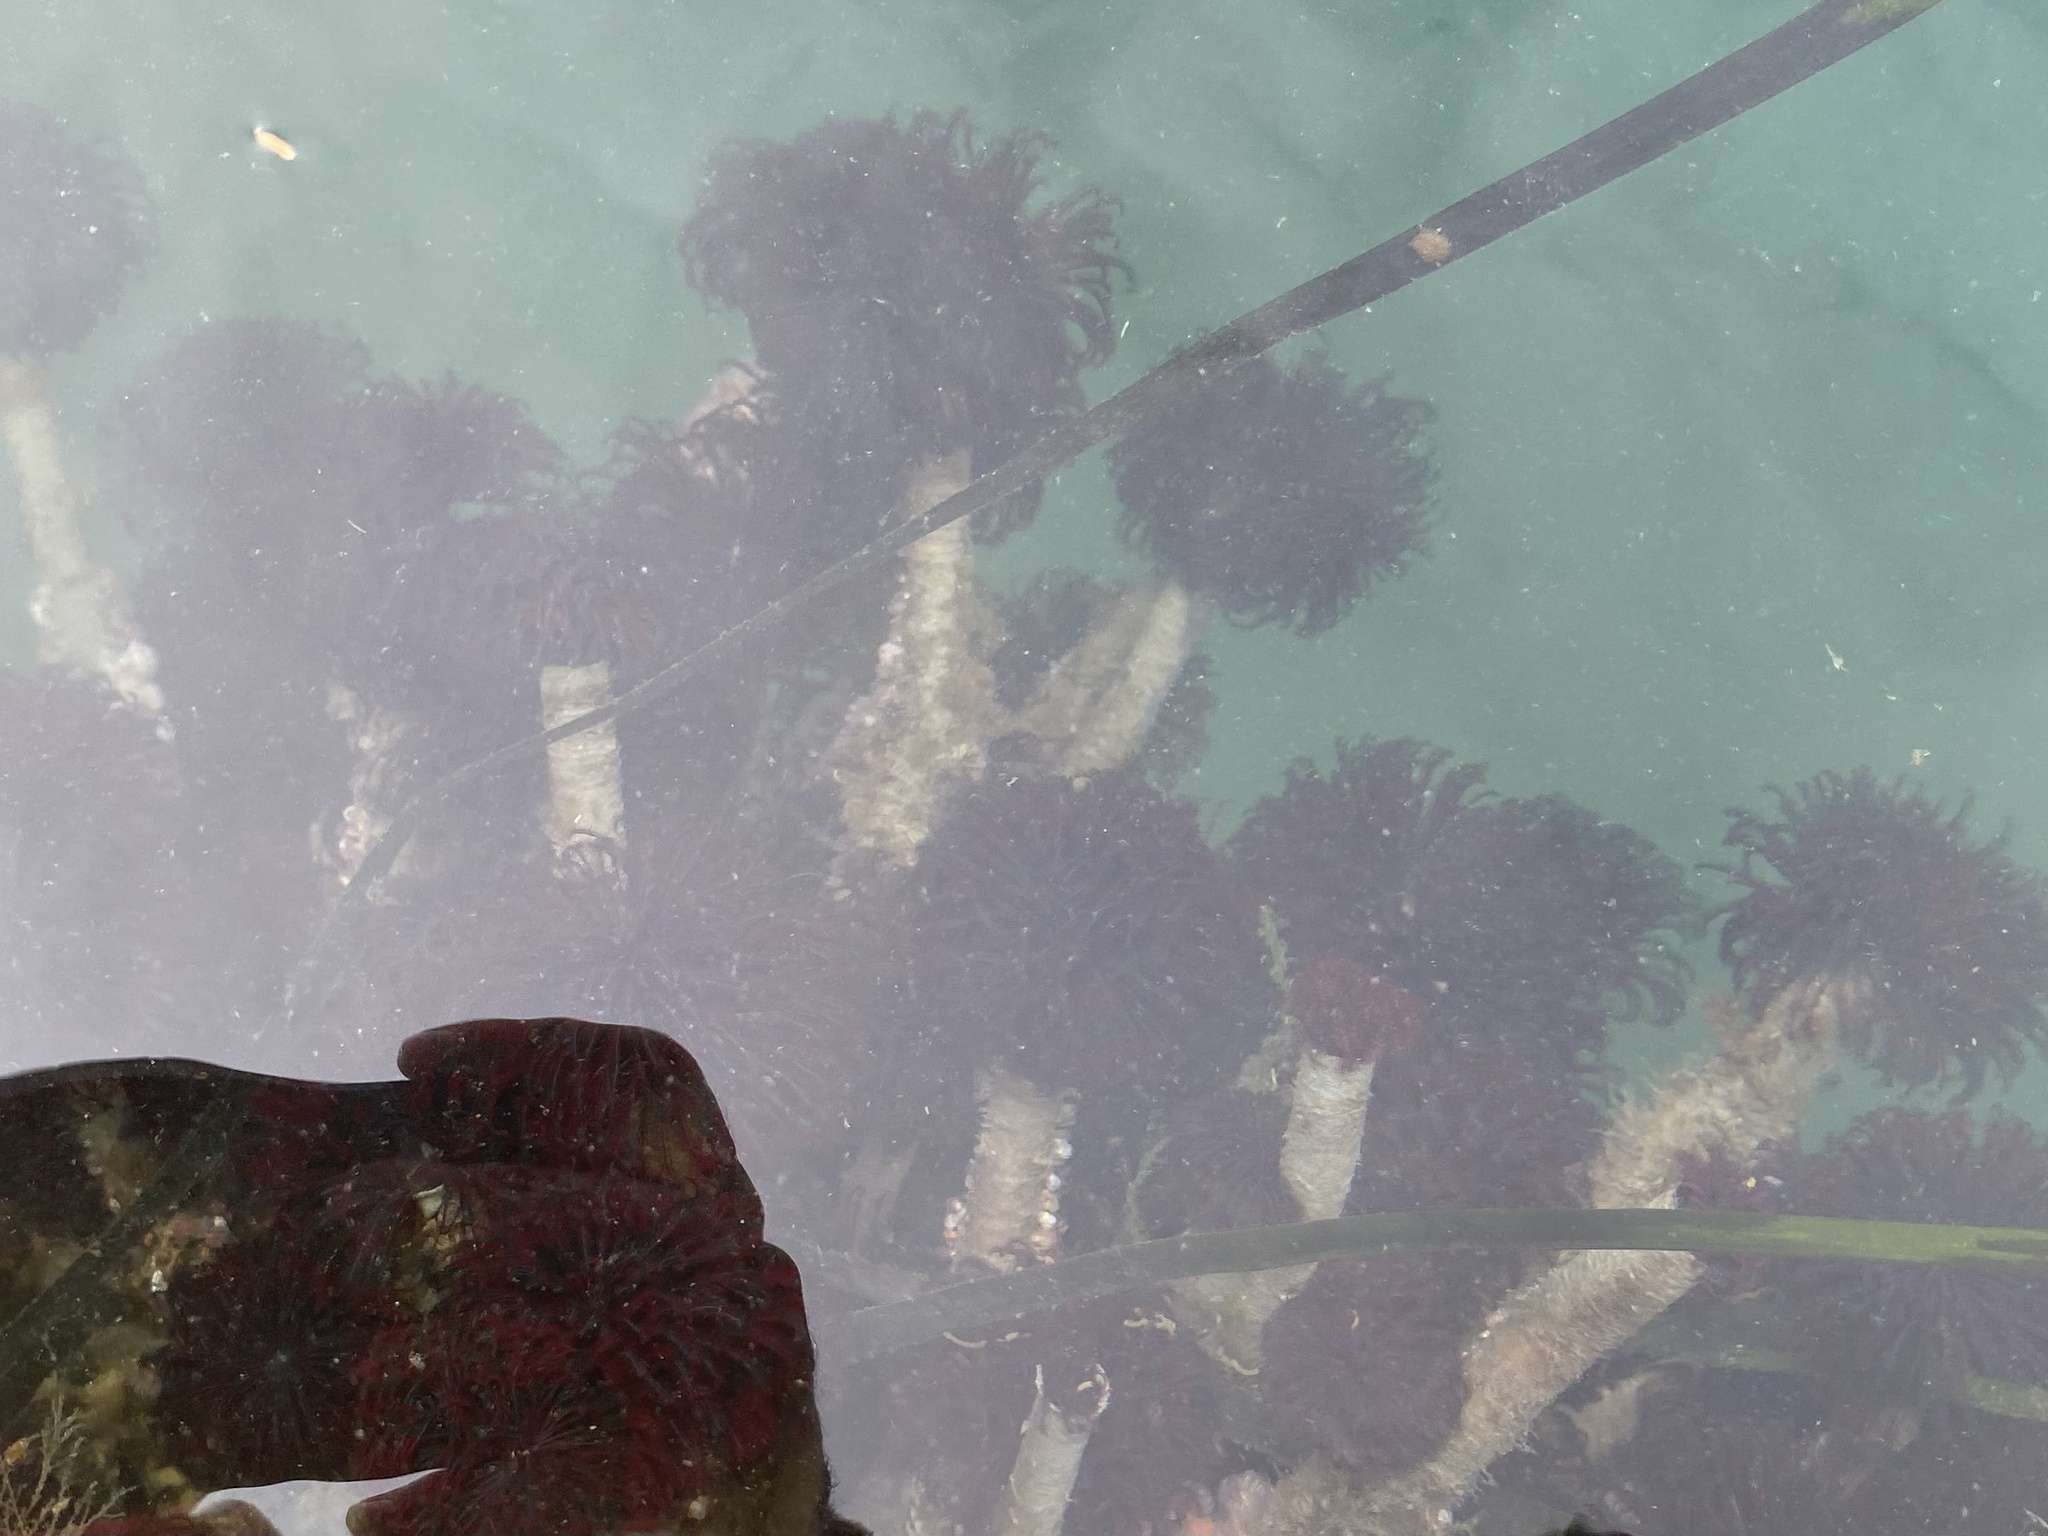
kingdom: Animalia
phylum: Annelida
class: Polychaeta
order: Sabellida
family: Sabellidae
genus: Eudistylia
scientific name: Eudistylia vancouveri
